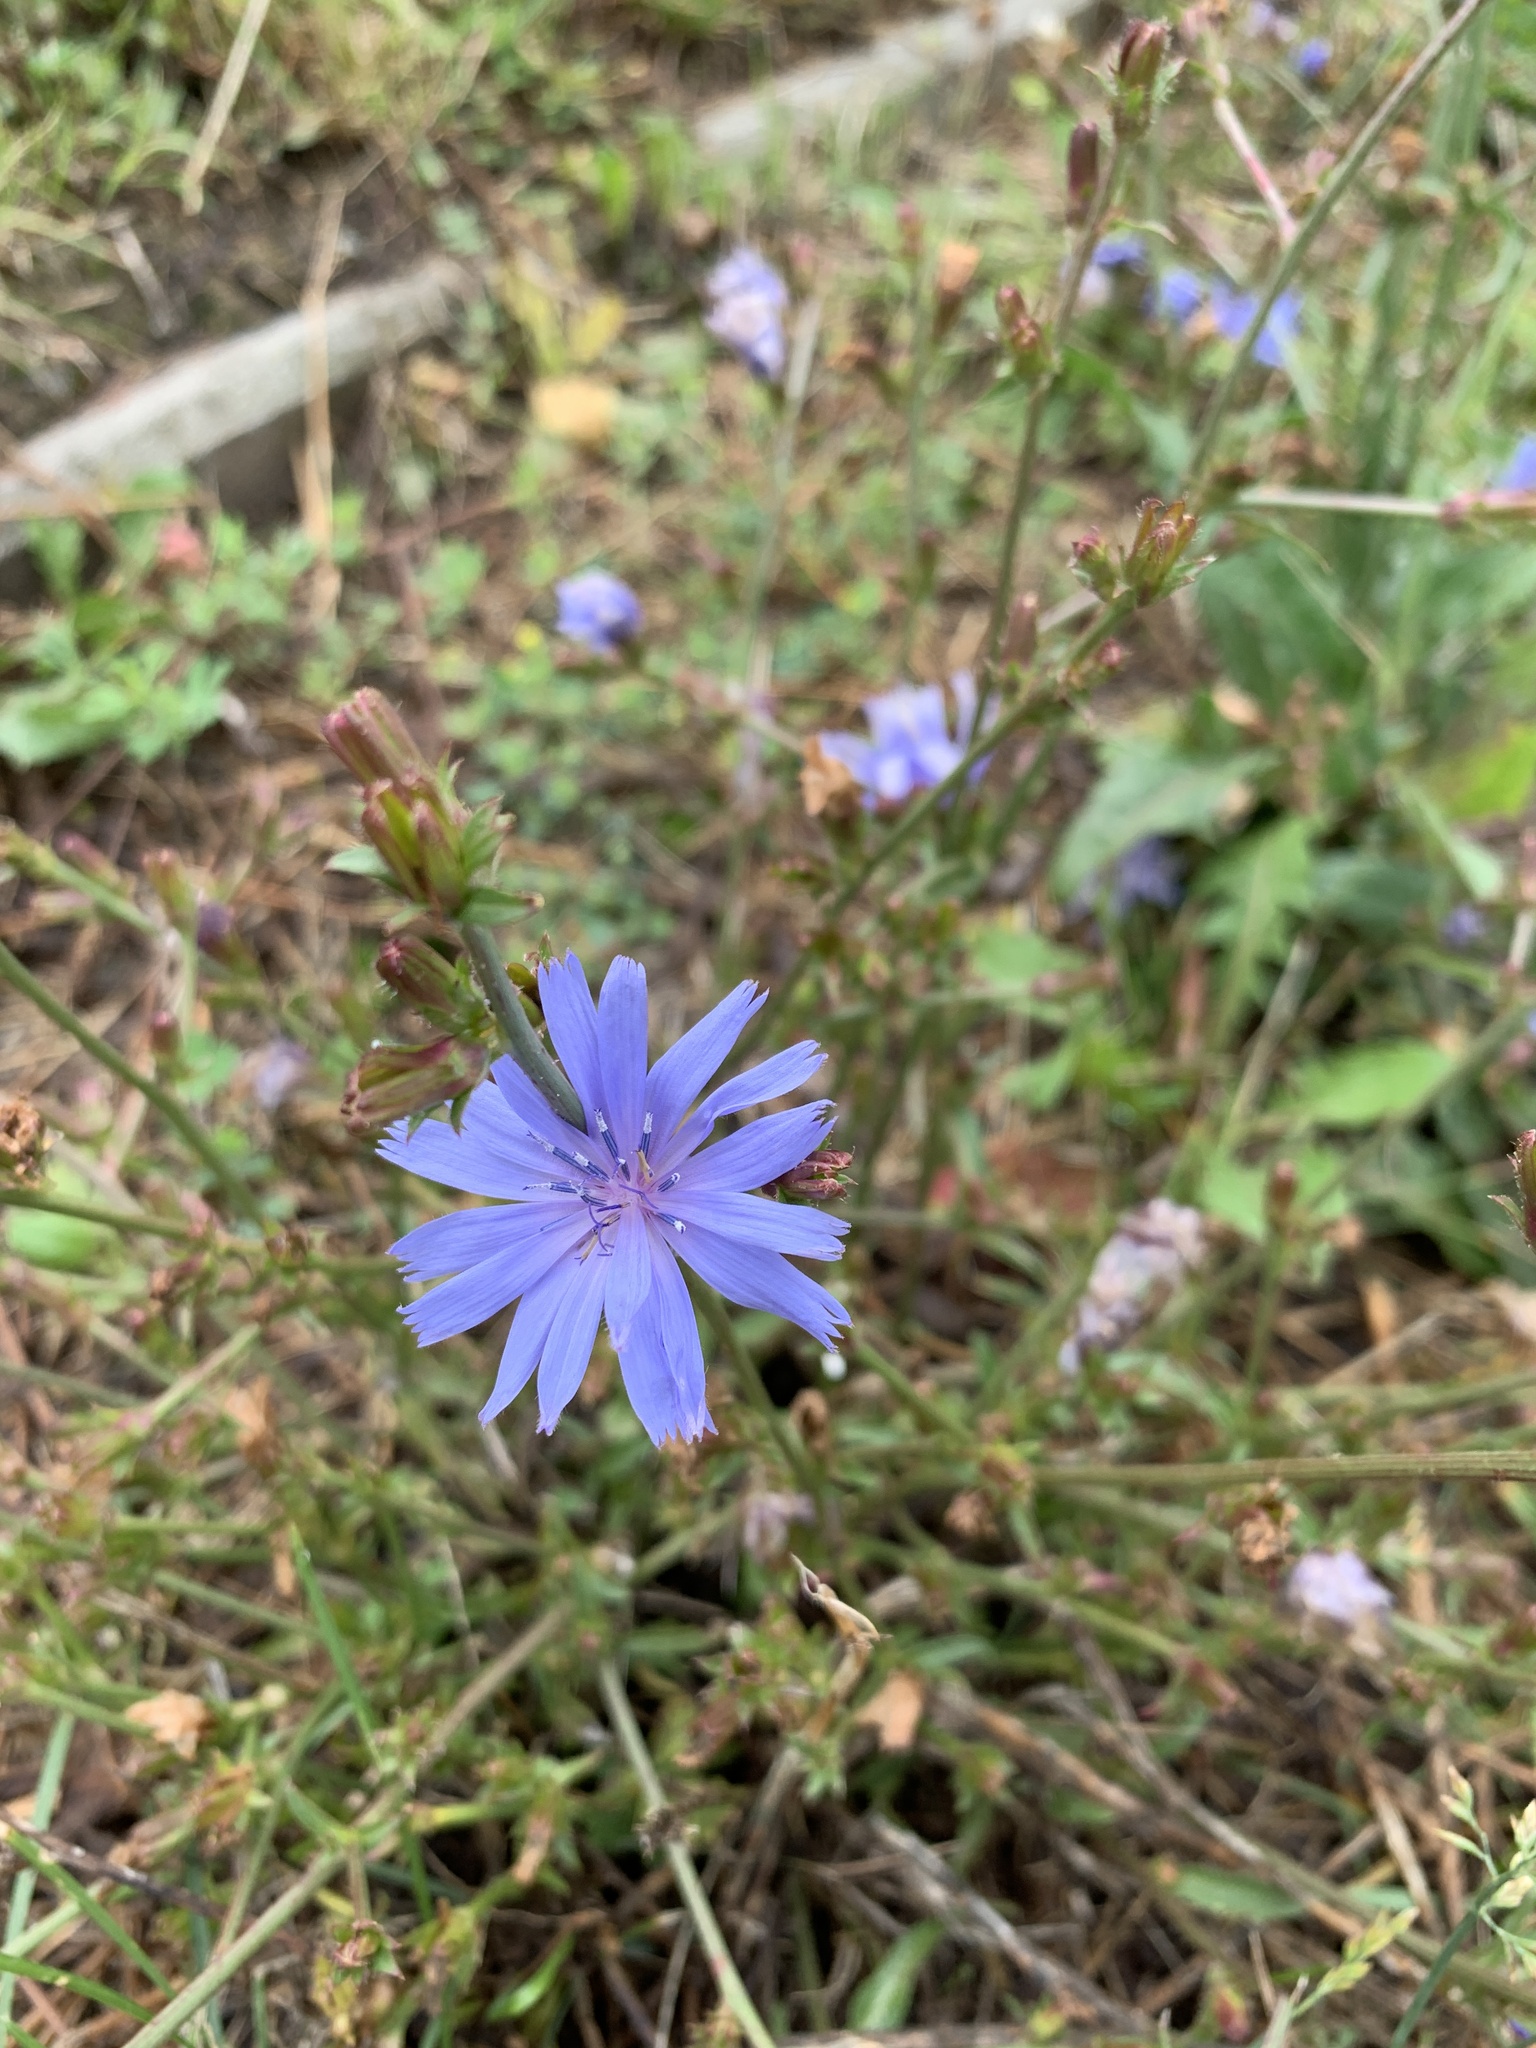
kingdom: Plantae
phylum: Tracheophyta
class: Magnoliopsida
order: Asterales
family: Asteraceae
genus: Cichorium
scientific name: Cichorium intybus
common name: Chicory
